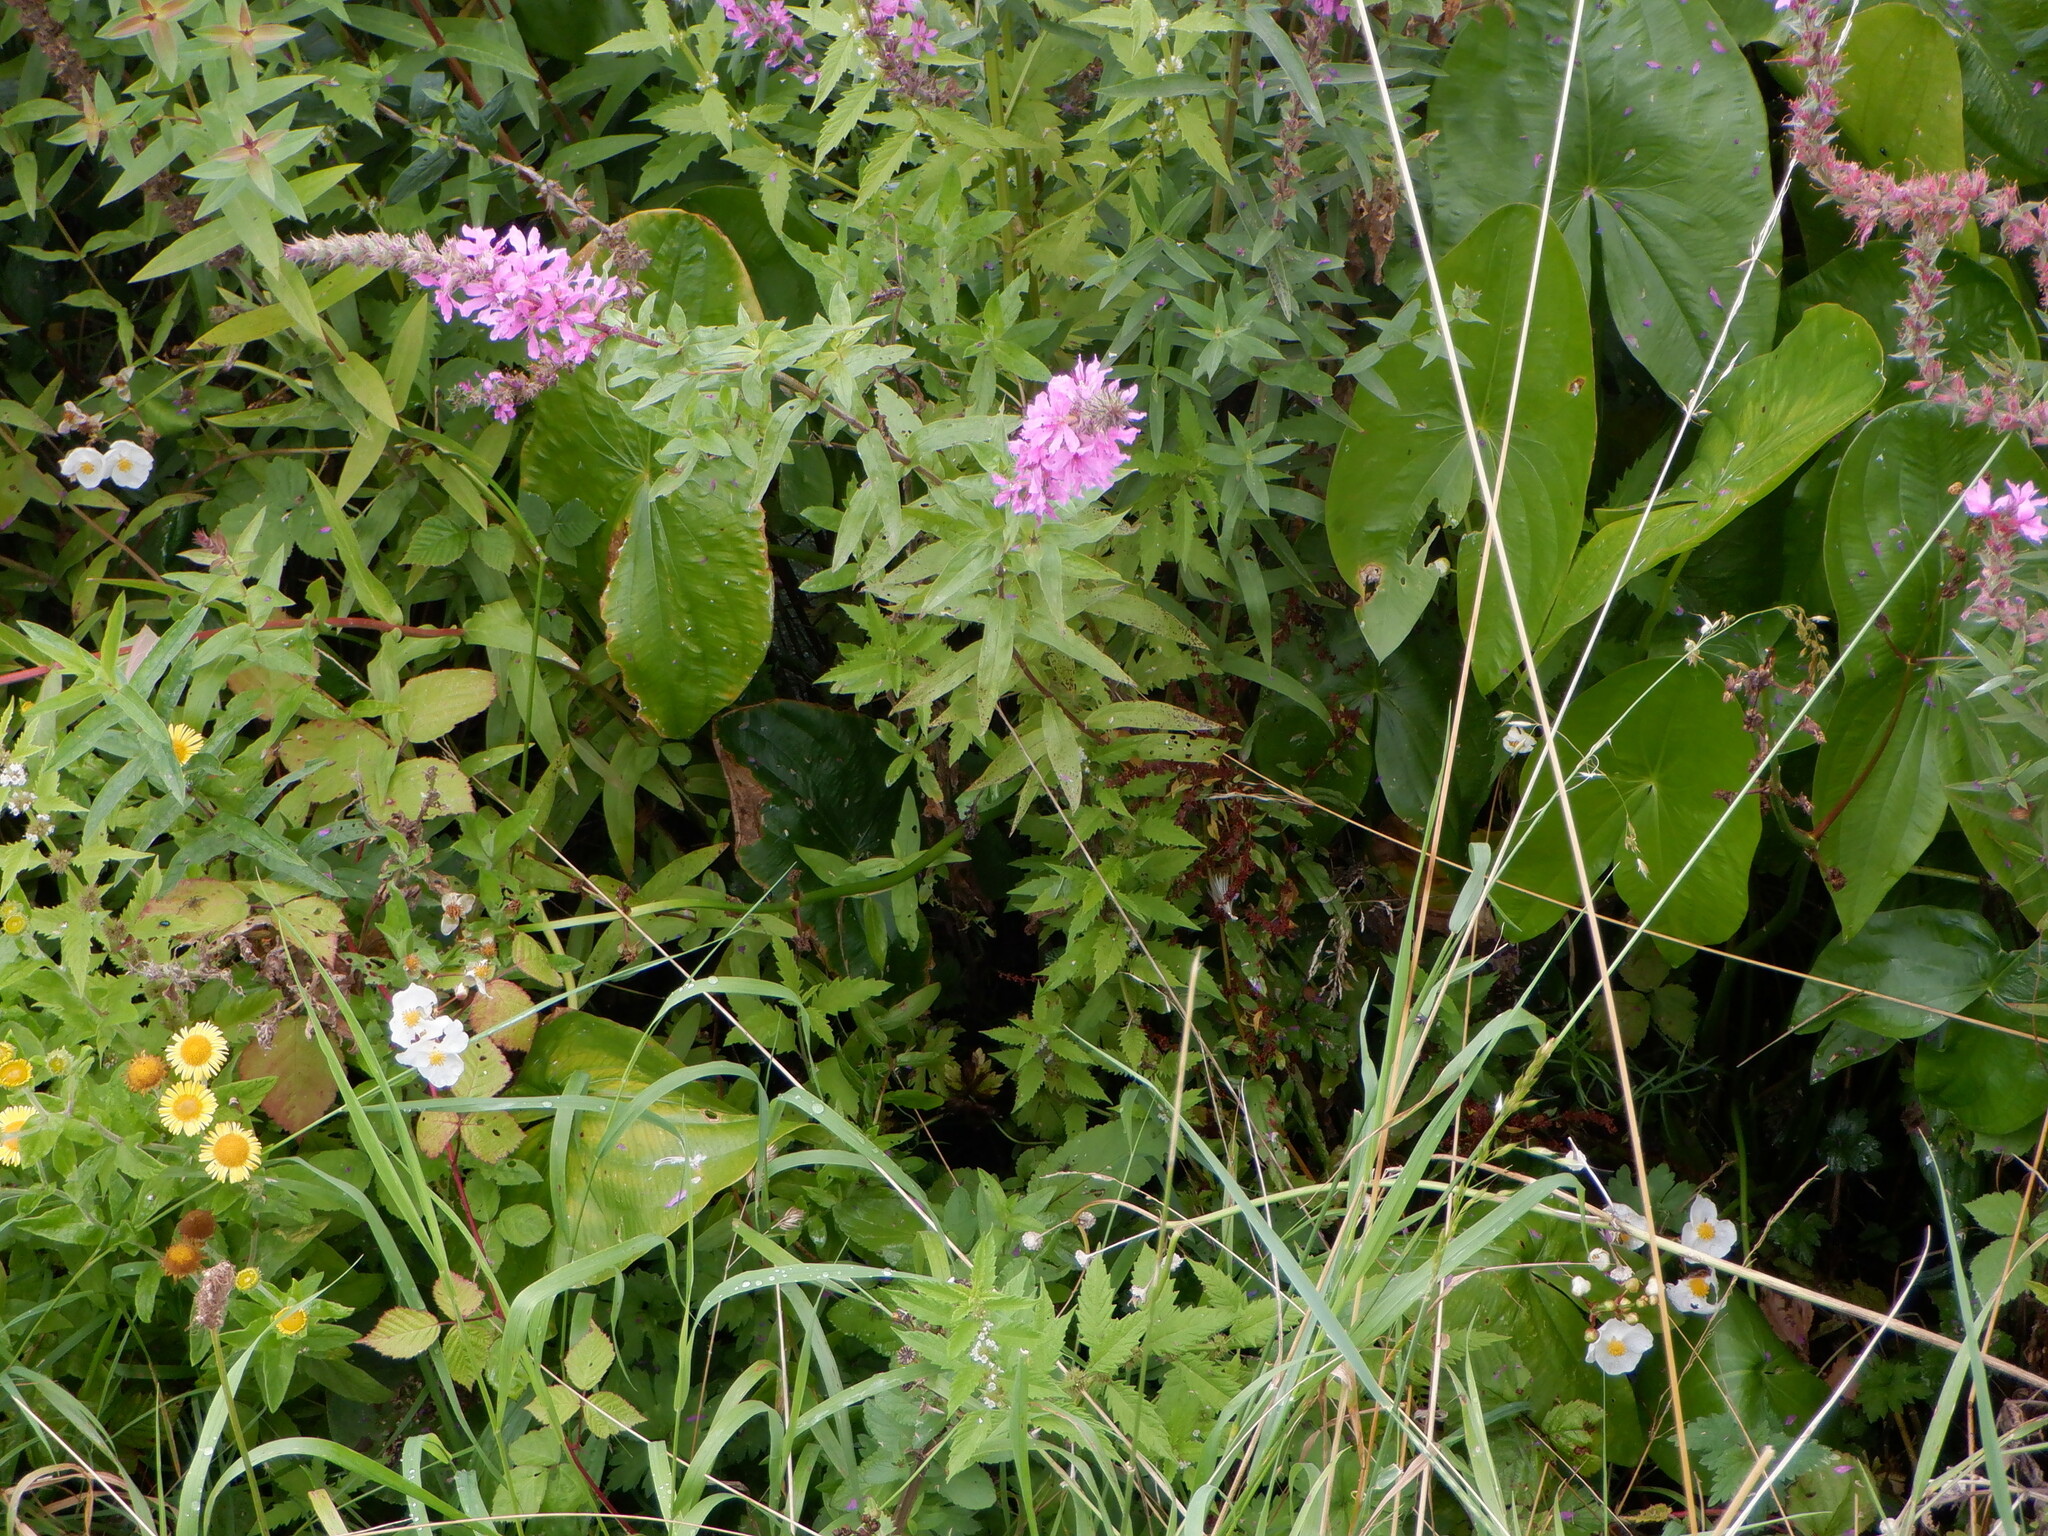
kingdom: Plantae
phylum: Tracheophyta
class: Magnoliopsida
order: Myrtales
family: Lythraceae
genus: Lythrum
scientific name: Lythrum salicaria
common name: Purple loosestrife
